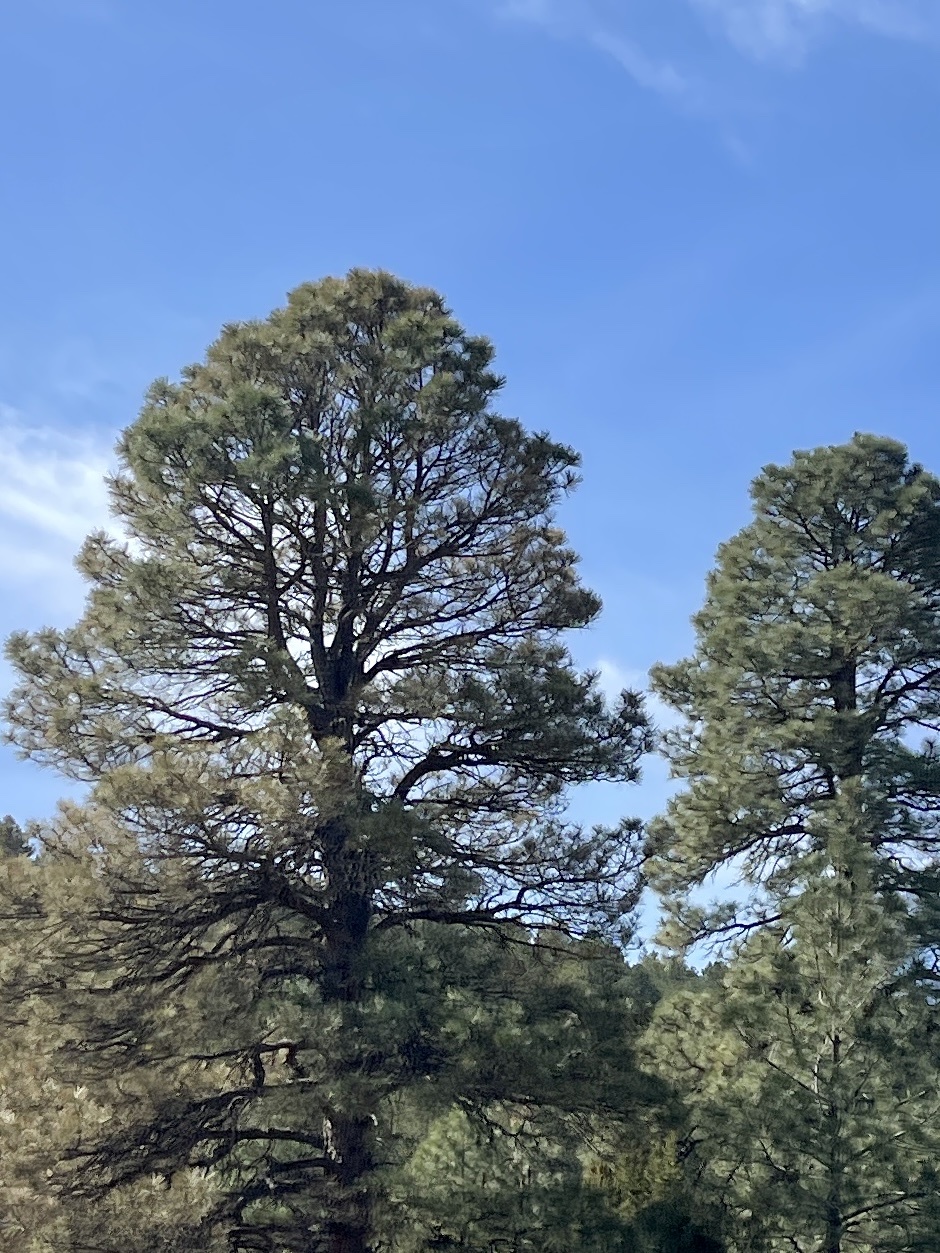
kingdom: Plantae
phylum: Tracheophyta
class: Pinopsida
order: Pinales
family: Pinaceae
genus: Pinus
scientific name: Pinus ponderosa
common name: Western yellow-pine
